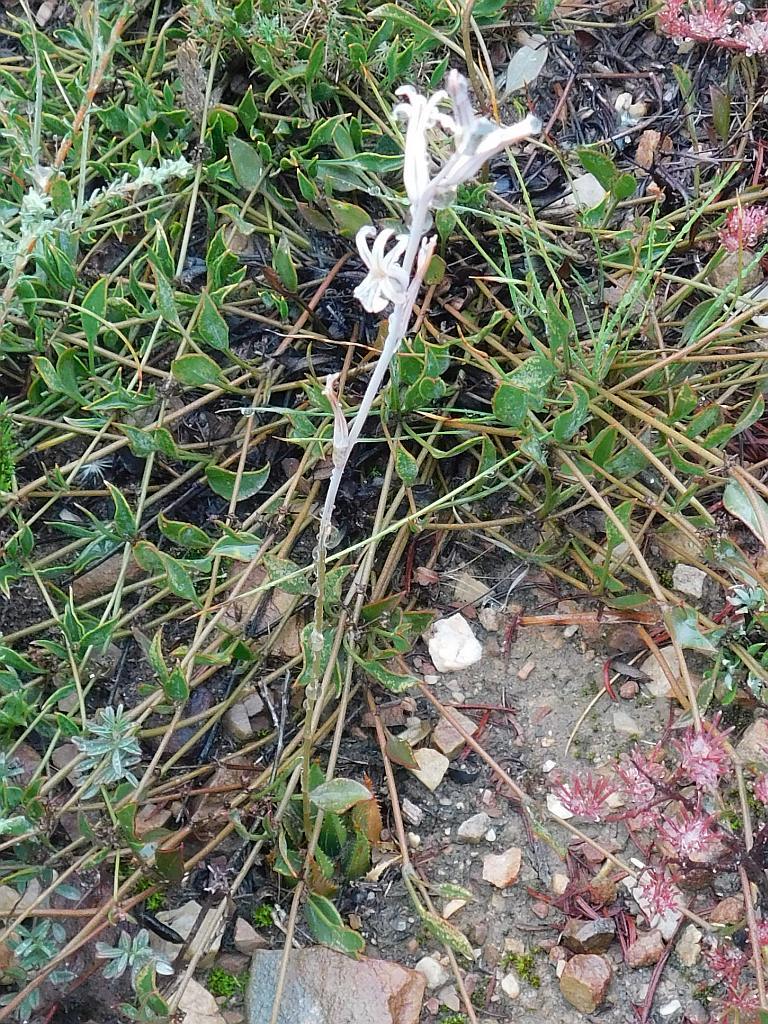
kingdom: Plantae
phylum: Tracheophyta
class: Liliopsida
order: Asparagales
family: Asphodelaceae
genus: Haworthia
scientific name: Haworthia mirabilis
